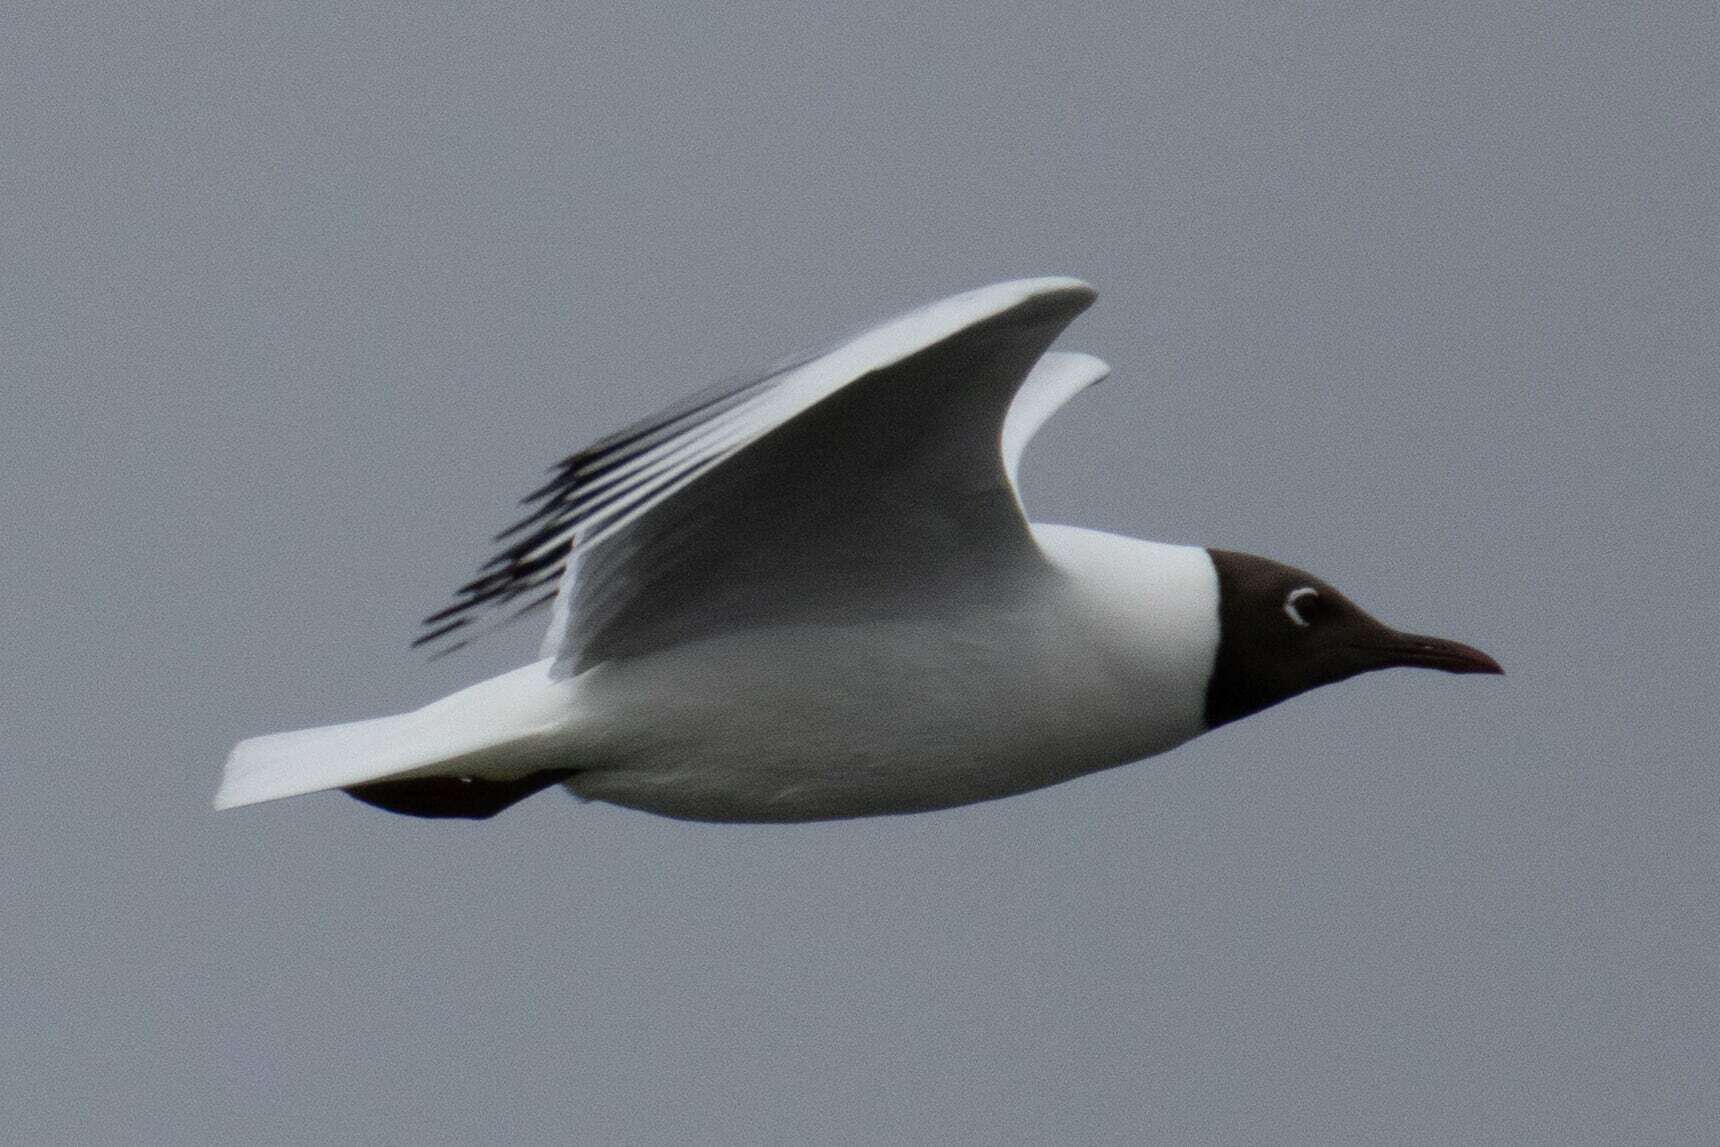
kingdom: Animalia
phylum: Chordata
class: Aves
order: Charadriiformes
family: Laridae
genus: Chroicocephalus
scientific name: Chroicocephalus ridibundus
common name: Black-headed gull
